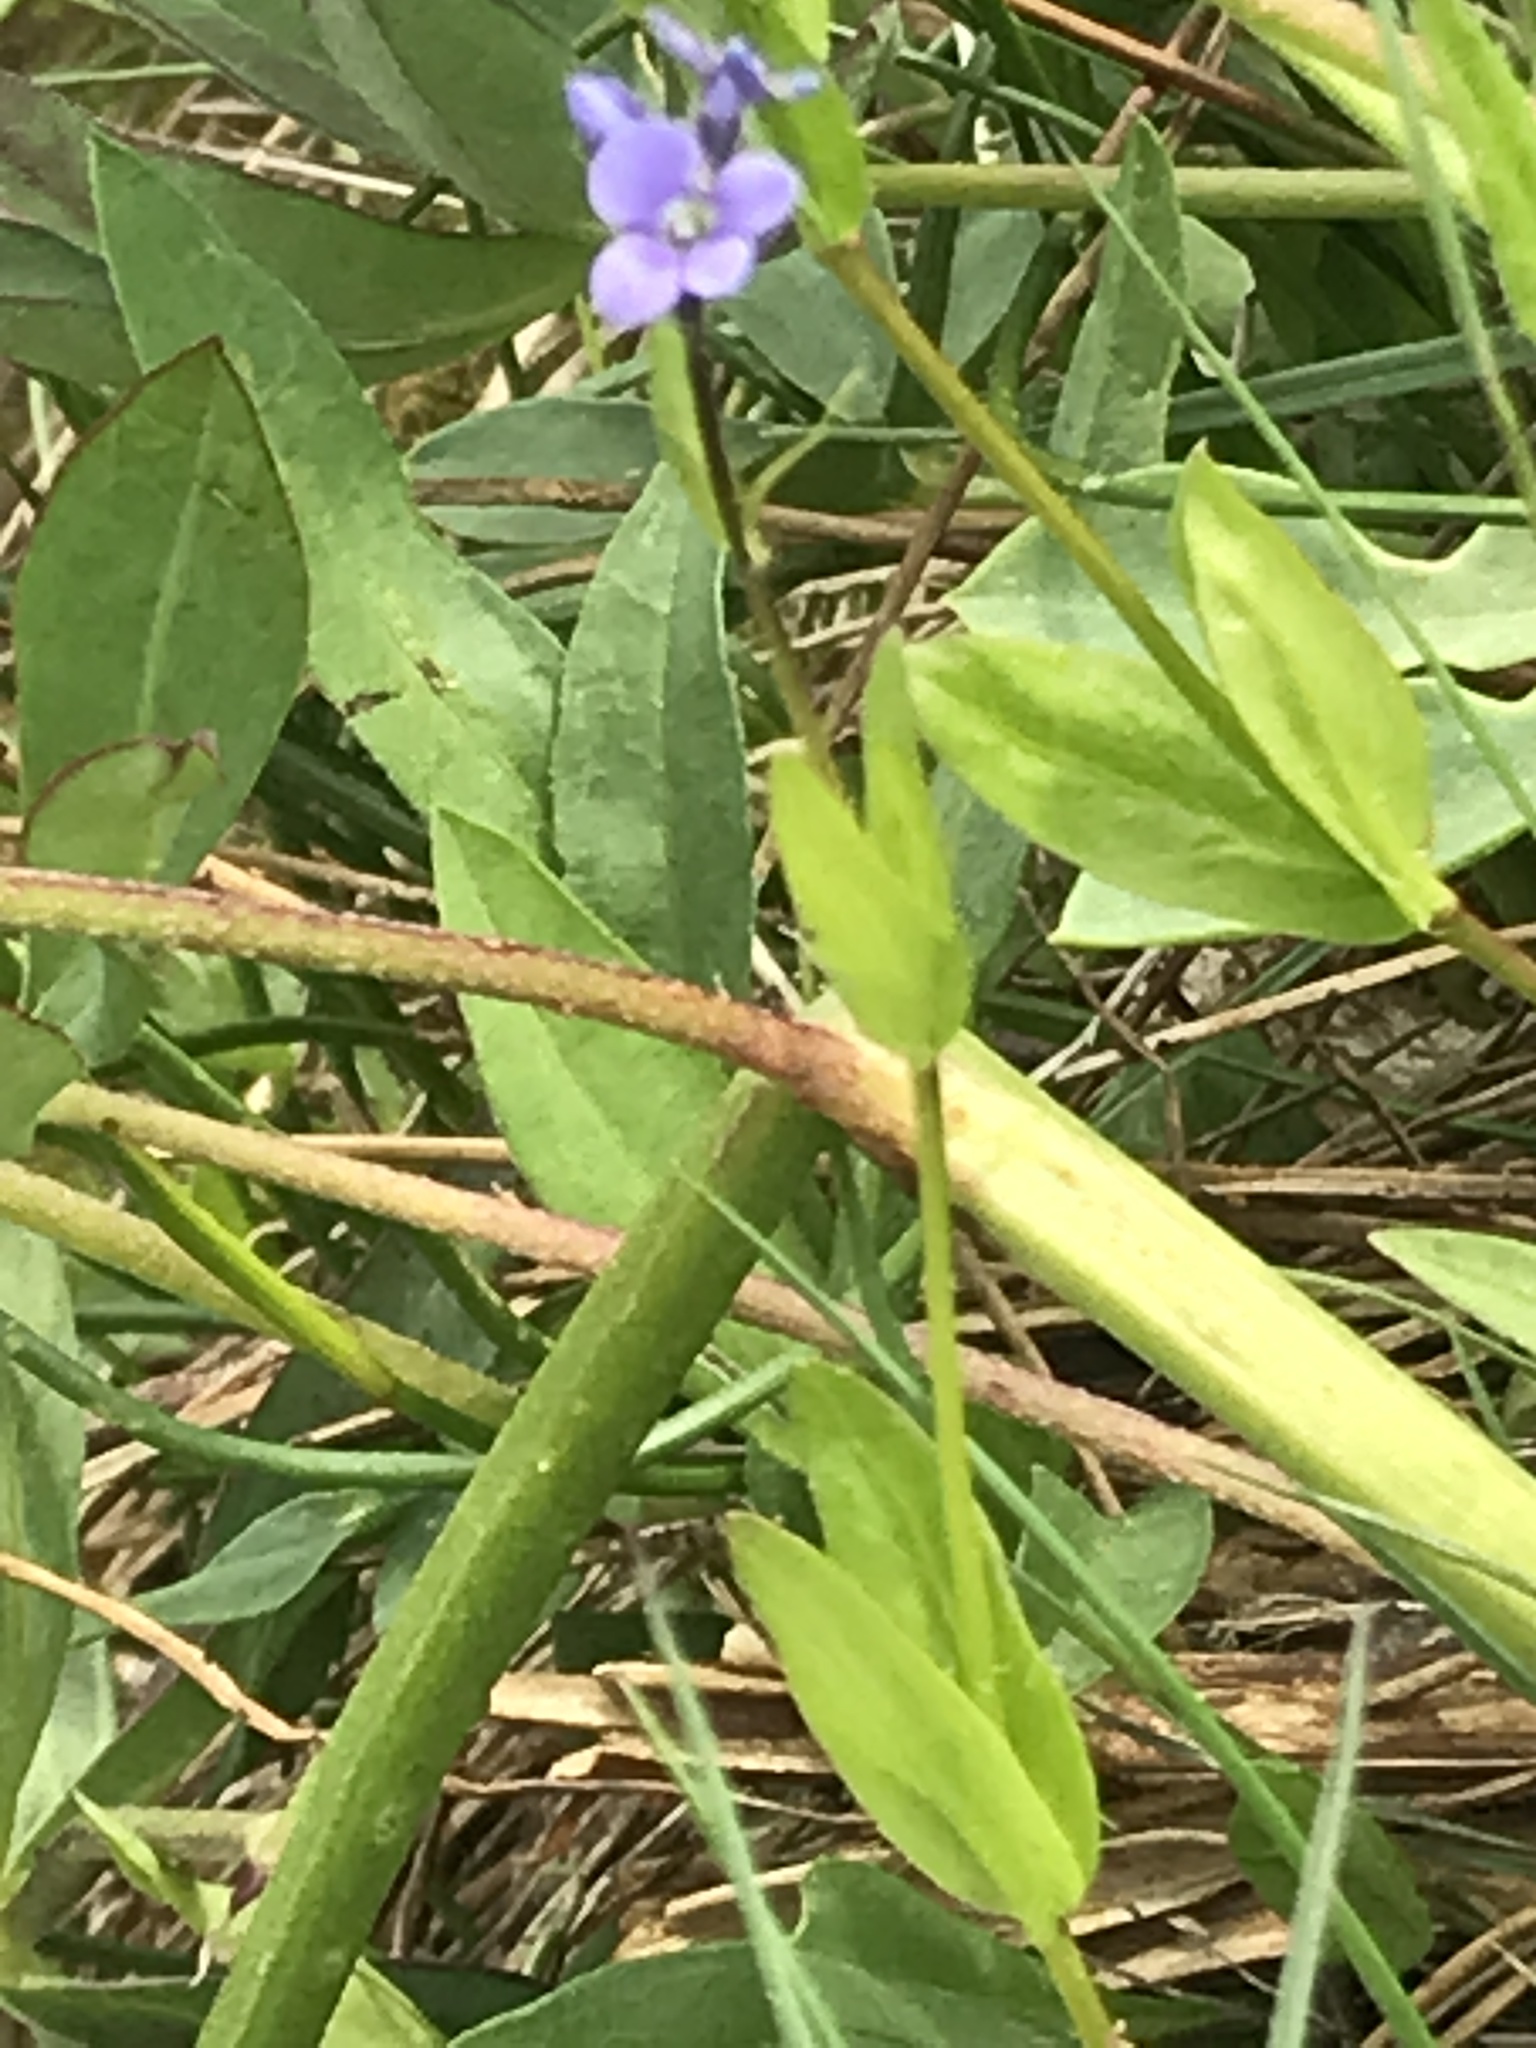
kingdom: Plantae
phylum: Tracheophyta
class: Magnoliopsida
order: Lamiales
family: Plantaginaceae
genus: Veronica
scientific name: Veronica wormskjoldii
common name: American alpine speedwell
